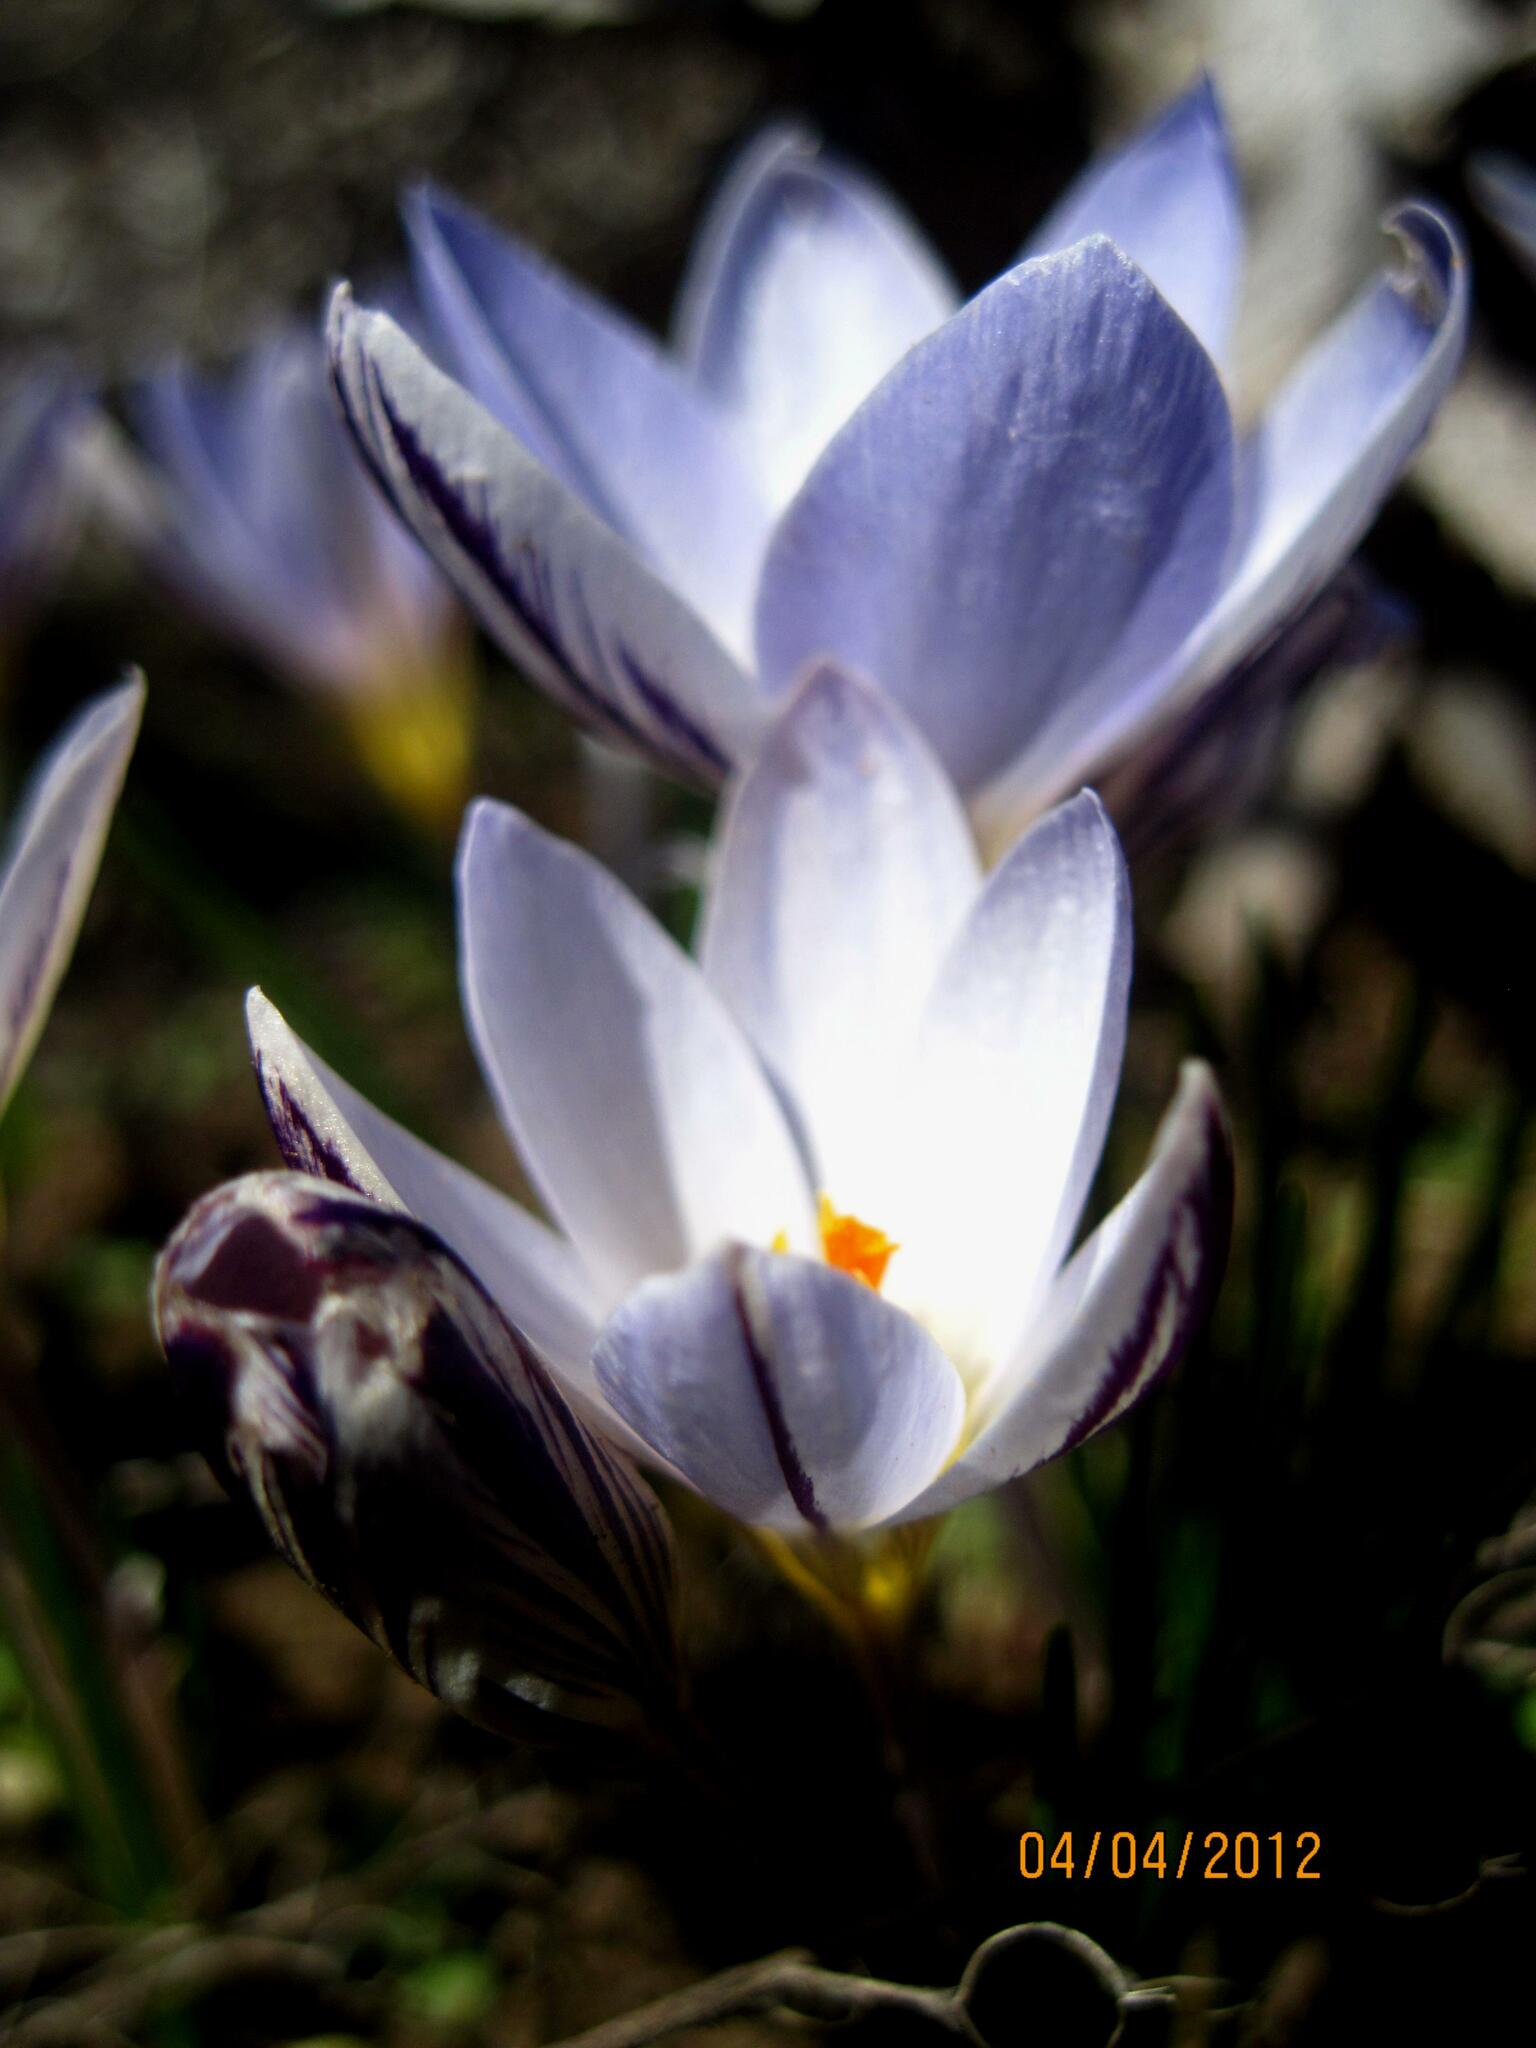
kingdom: Plantae
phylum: Tracheophyta
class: Liliopsida
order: Asparagales
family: Iridaceae
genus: Crocus
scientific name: Crocus reticulatus
